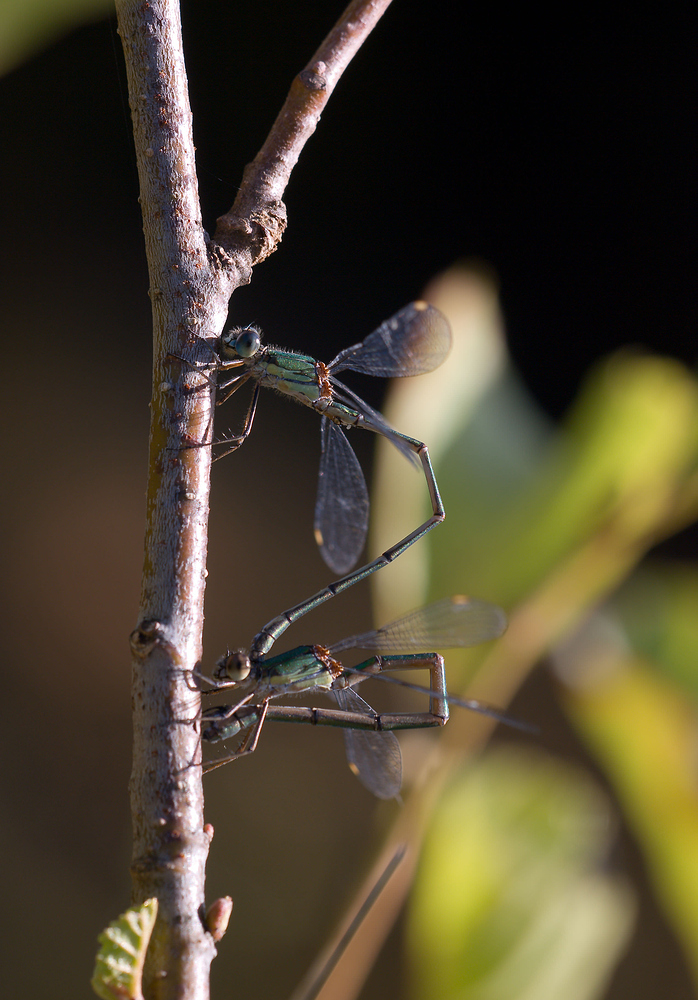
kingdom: Animalia
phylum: Arthropoda
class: Insecta
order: Odonata
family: Lestidae
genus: Chalcolestes
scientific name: Chalcolestes viridis
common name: Green emerald damselfly
